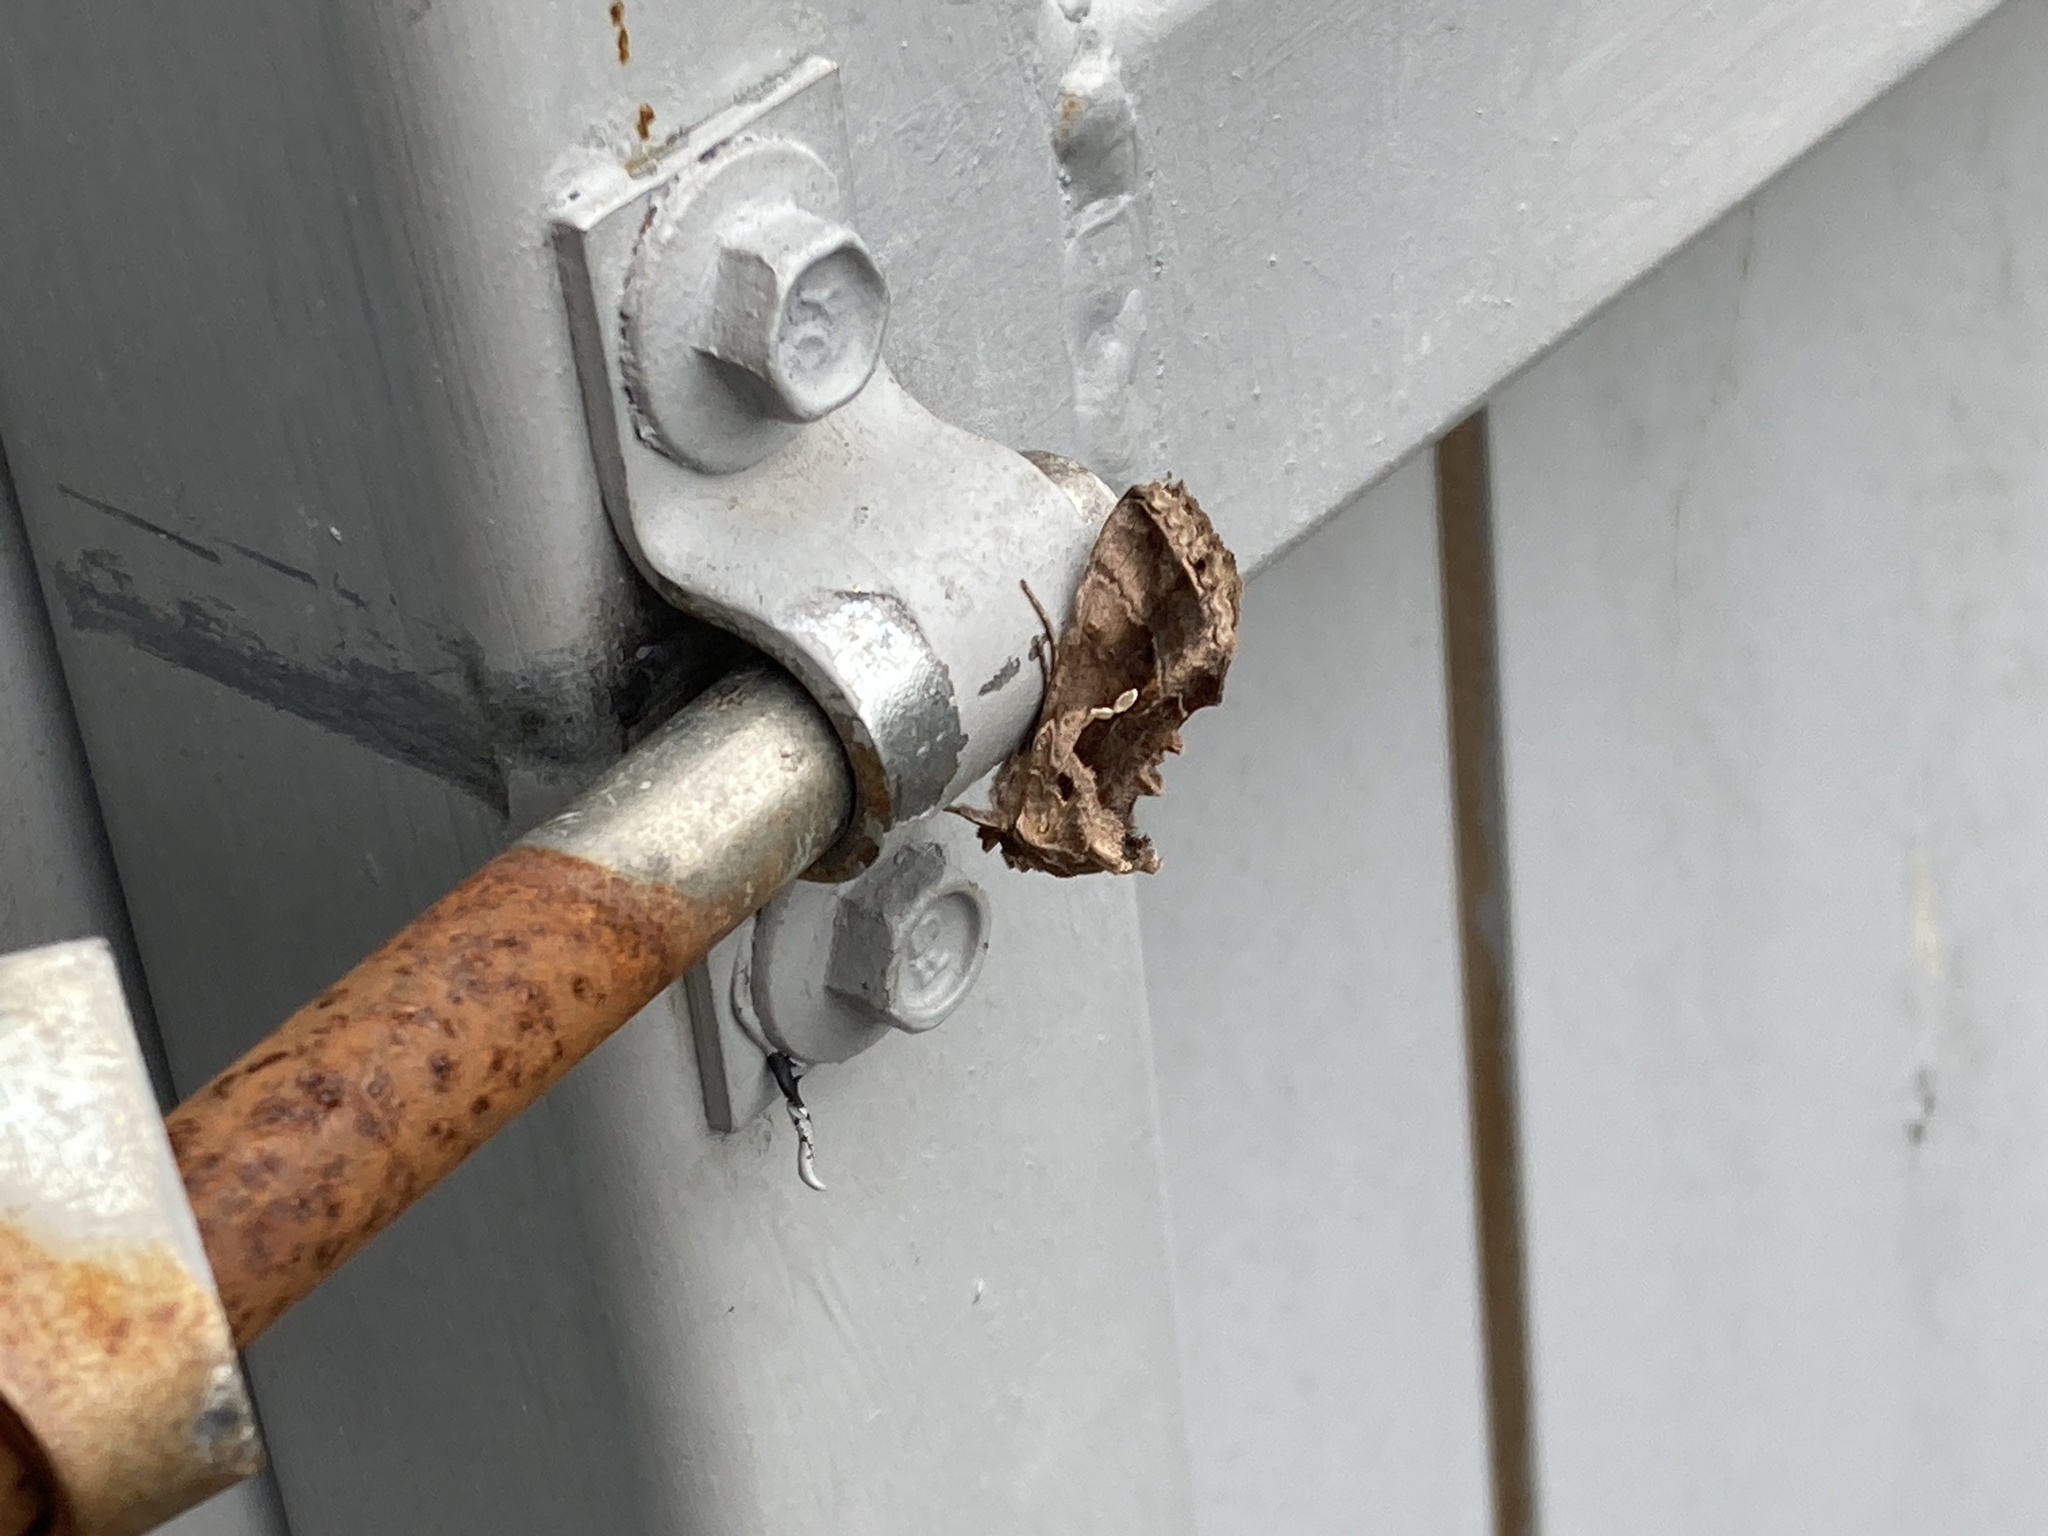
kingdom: Animalia
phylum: Arthropoda
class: Insecta
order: Lepidoptera
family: Noctuidae
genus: Chrysodeixis
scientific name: Chrysodeixis eriosoma
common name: Green garden looper
